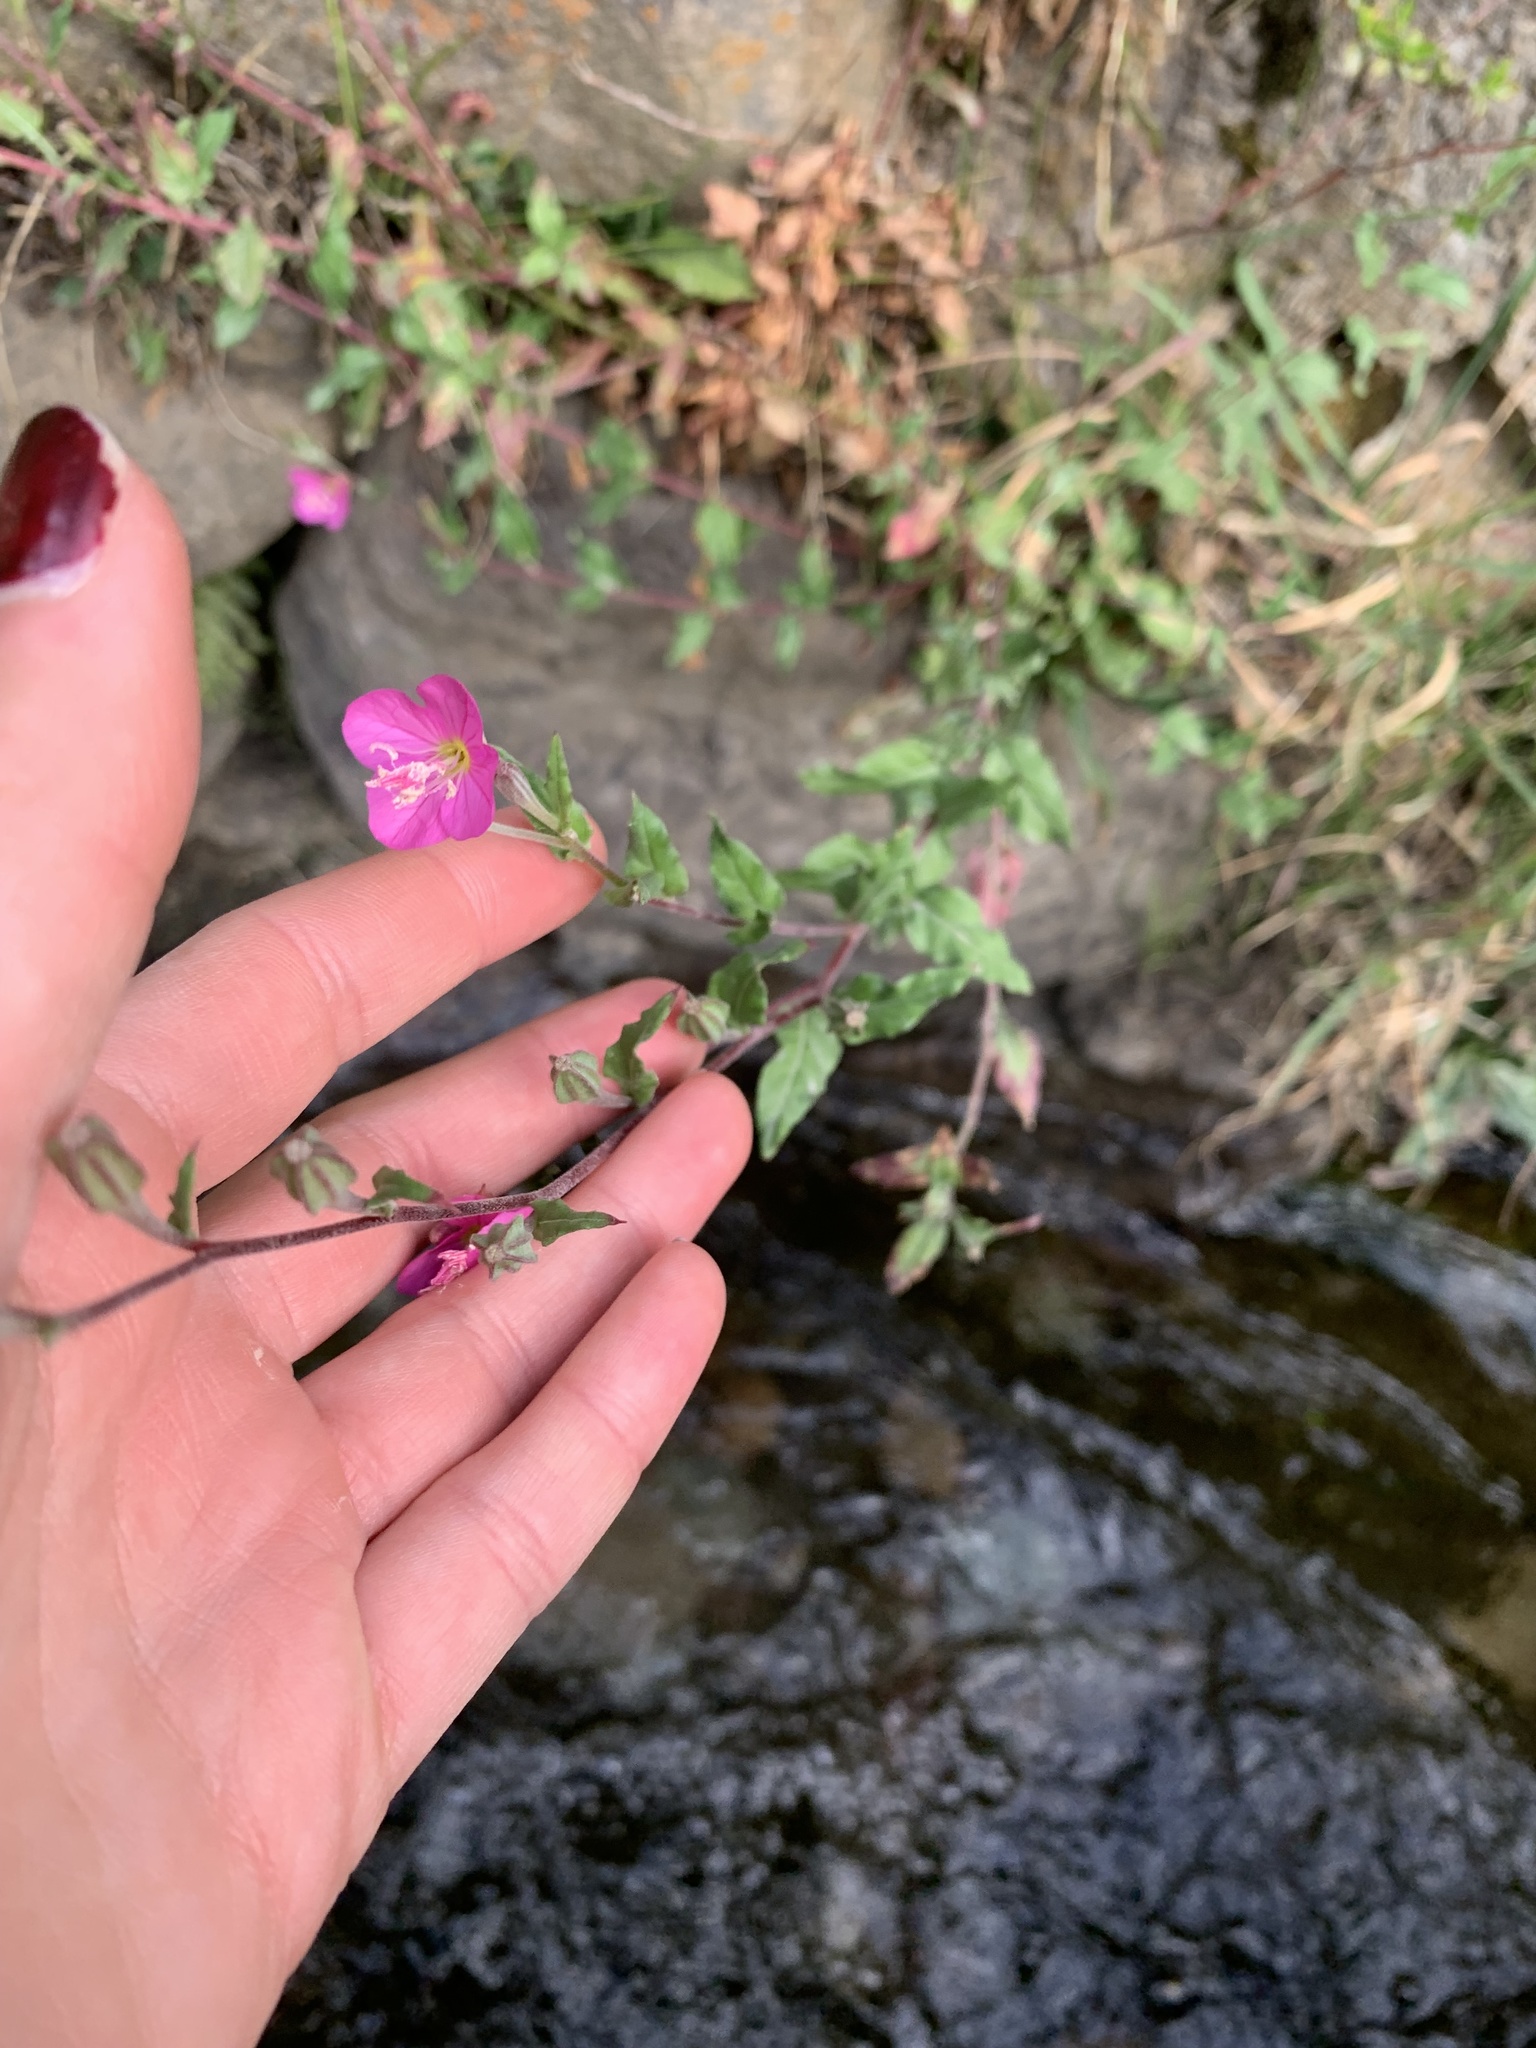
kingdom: Plantae
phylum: Tracheophyta
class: Magnoliopsida
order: Myrtales
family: Onagraceae
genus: Oenothera
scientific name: Oenothera rosea
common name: Rosy evening-primrose
